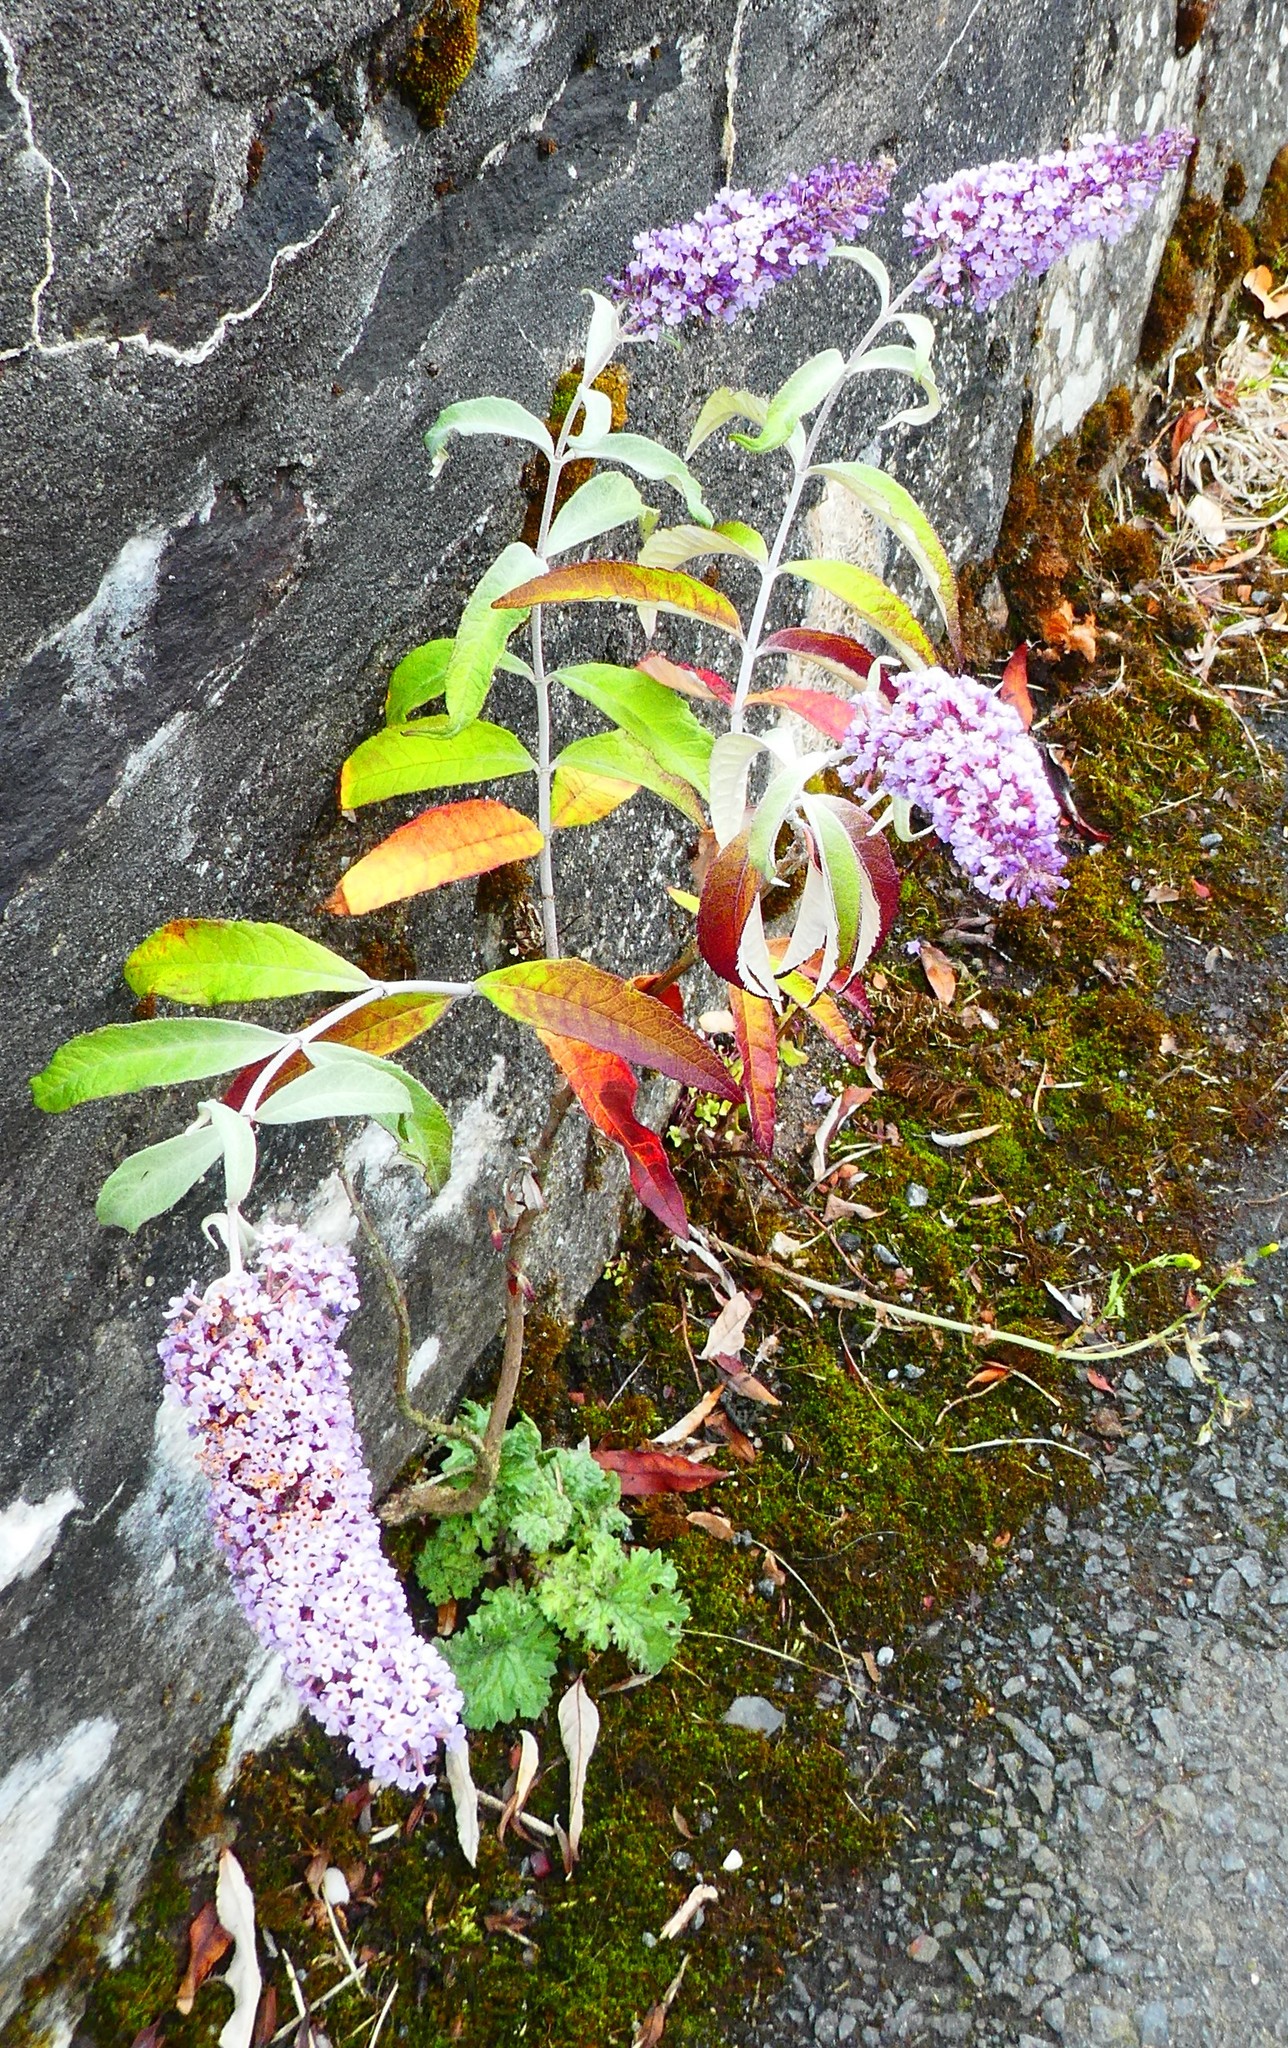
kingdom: Plantae
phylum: Tracheophyta
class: Magnoliopsida
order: Lamiales
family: Scrophulariaceae
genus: Buddleja
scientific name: Buddleja davidii
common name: Butterfly-bush
